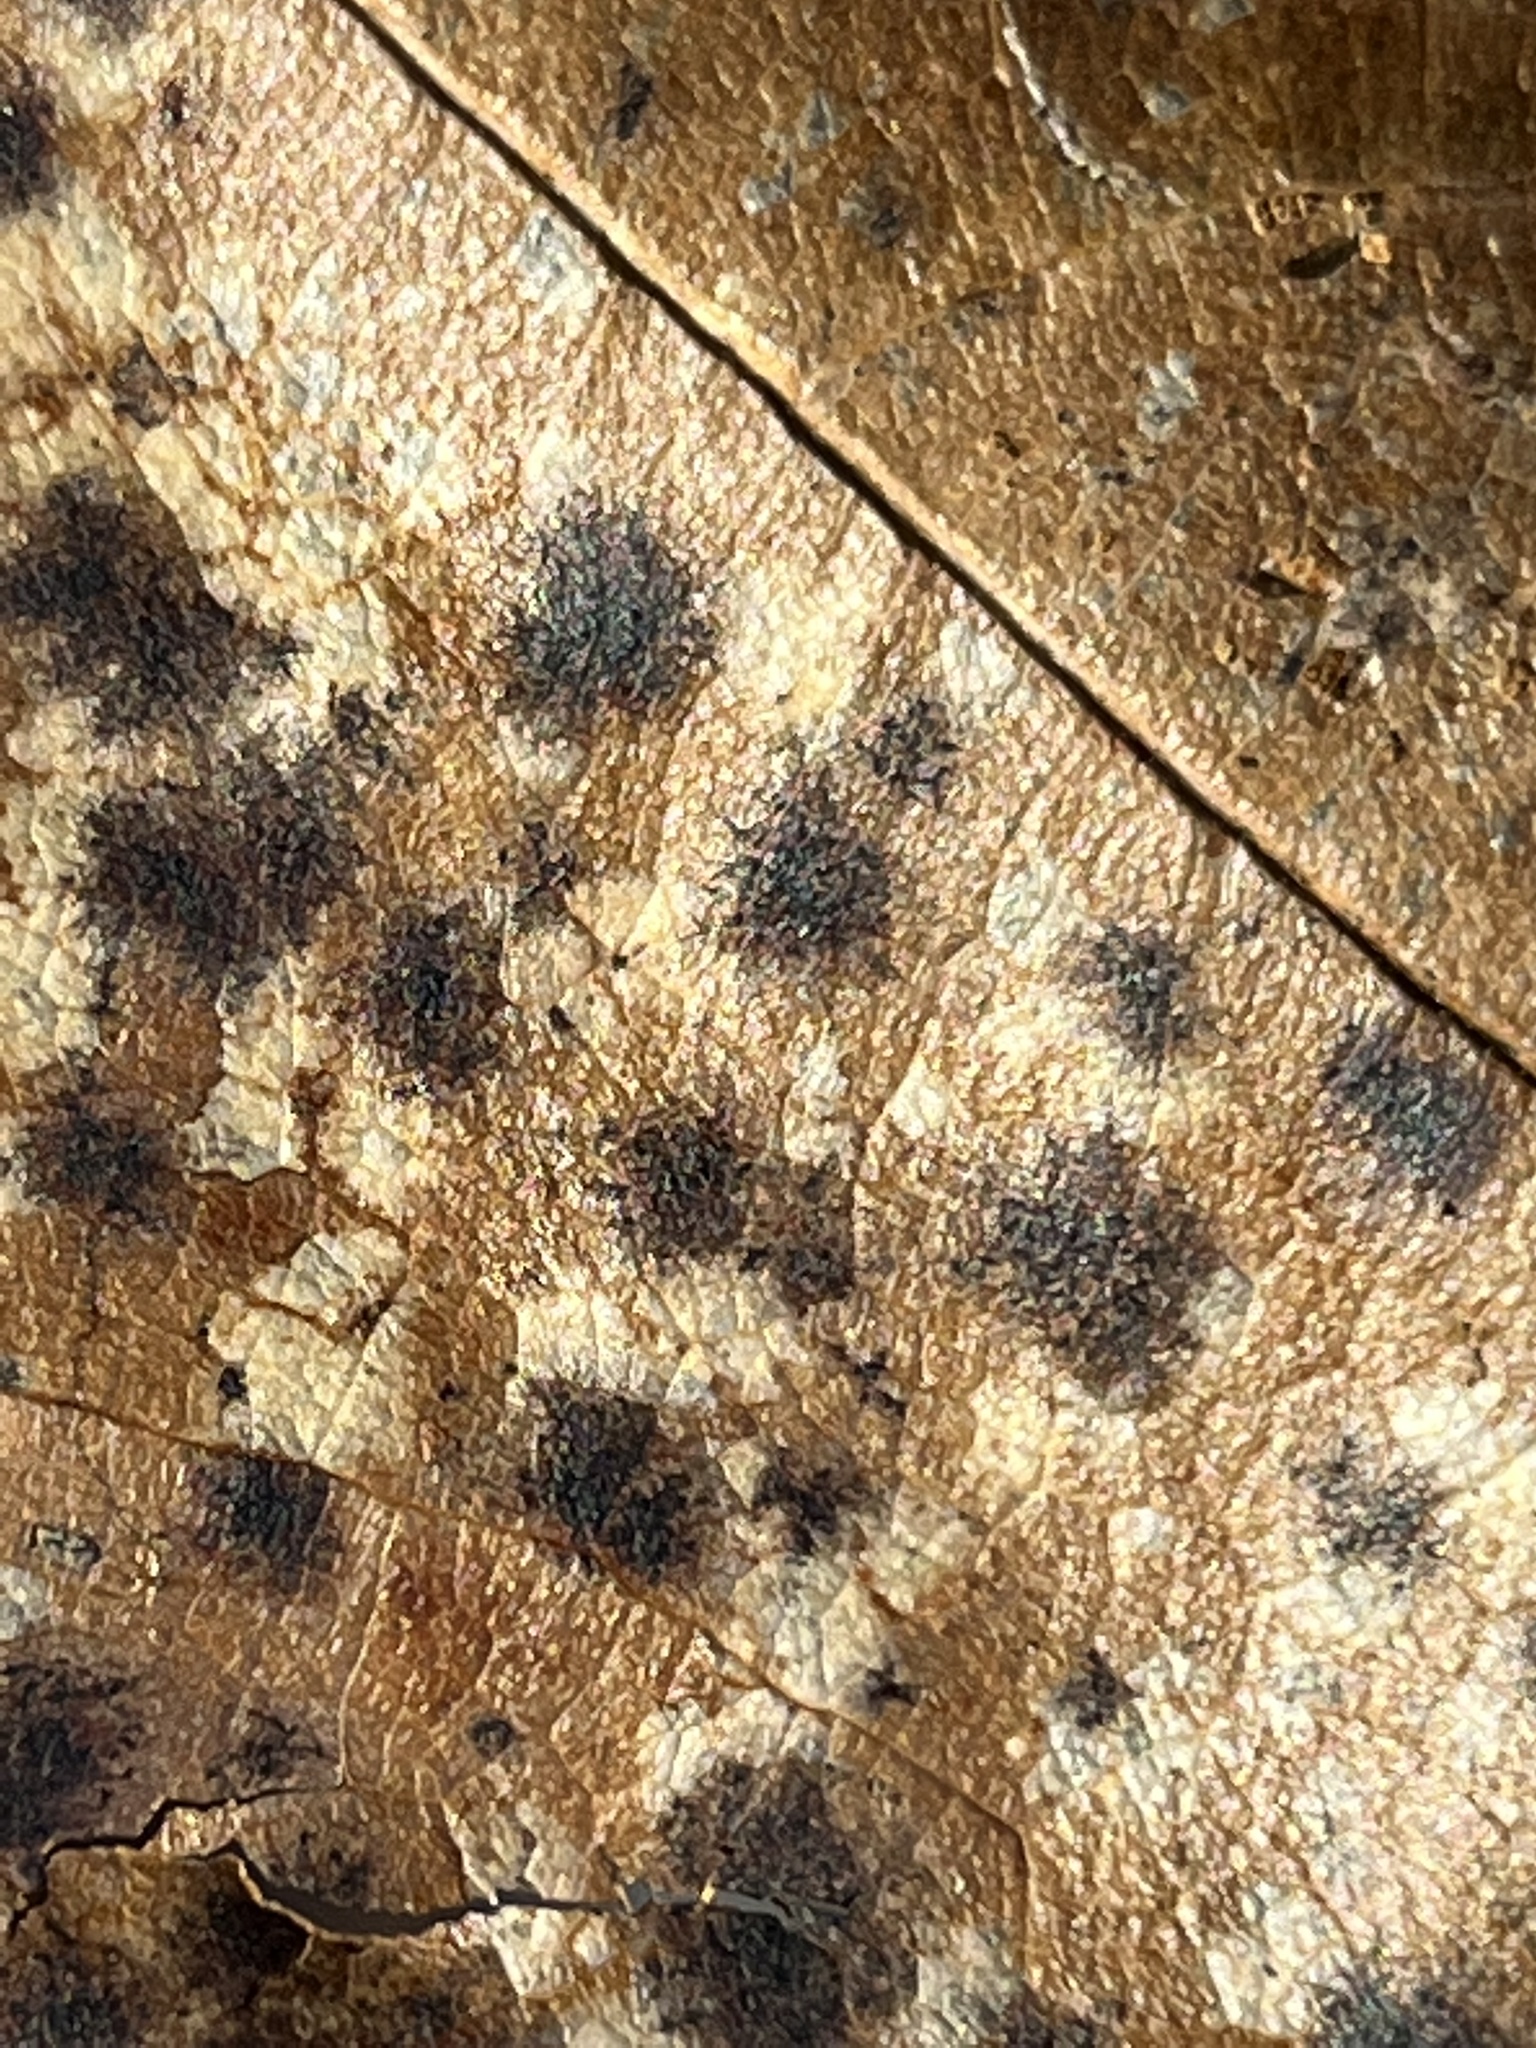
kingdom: Fungi
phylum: Ascomycota
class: Sordariomycetes
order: Diaporthales
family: Melanconidaceae
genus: Dicarpella
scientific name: Dicarpella dryina
